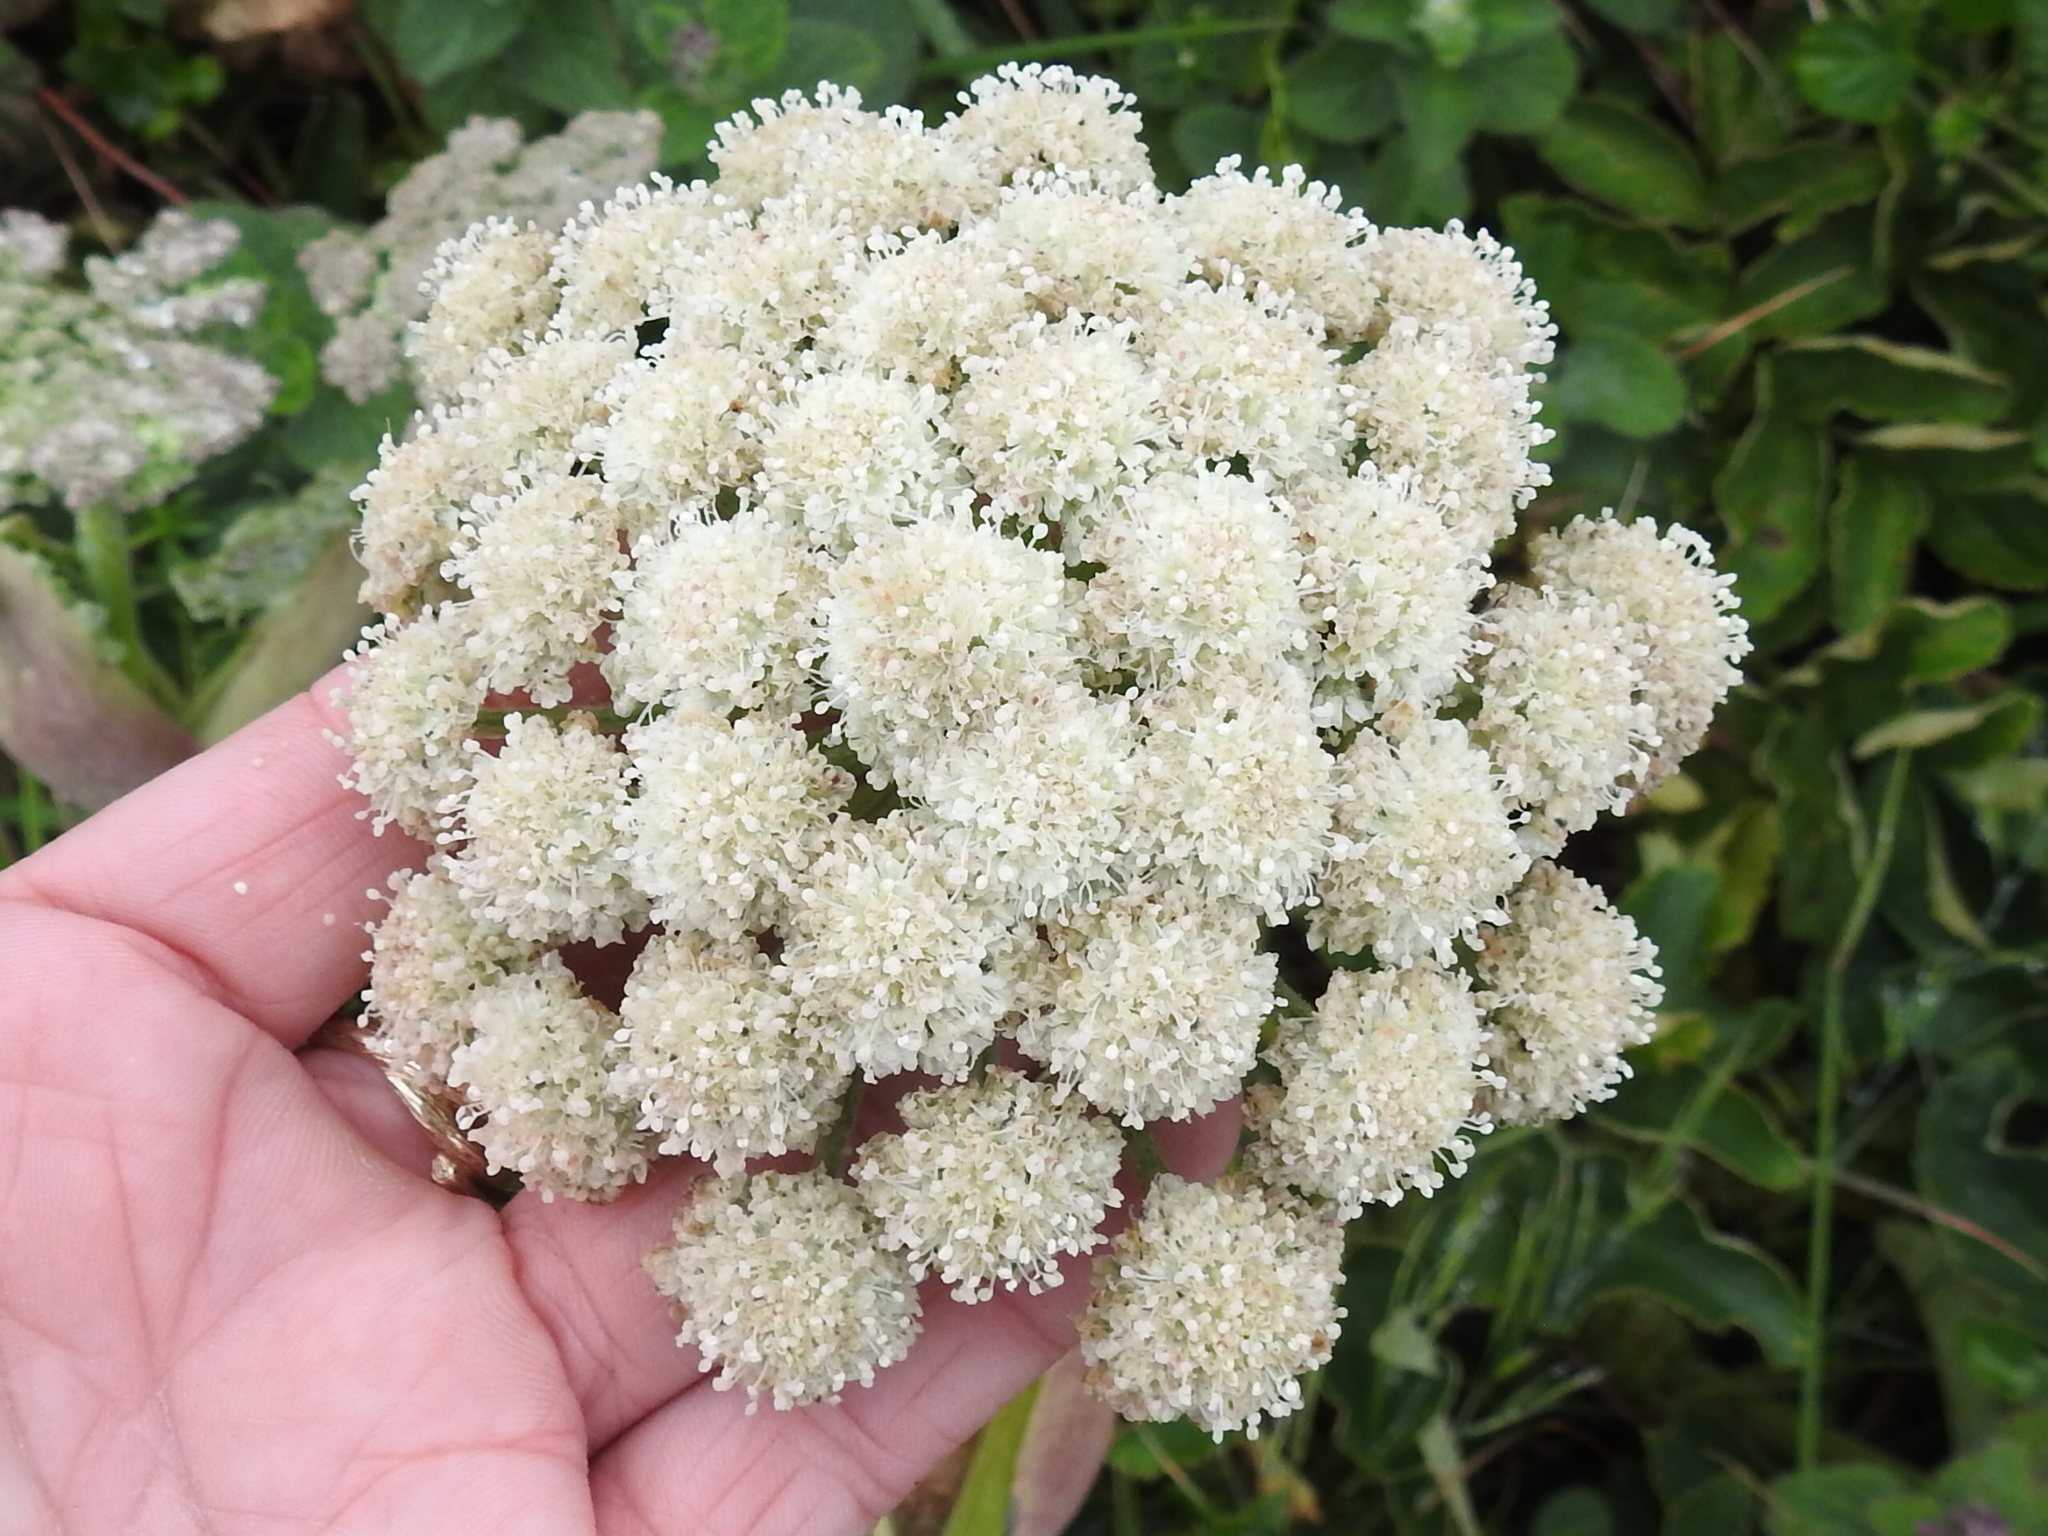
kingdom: Plantae
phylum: Tracheophyta
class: Magnoliopsida
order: Apiales
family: Apiaceae
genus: Angelica
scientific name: Angelica hendersonii
